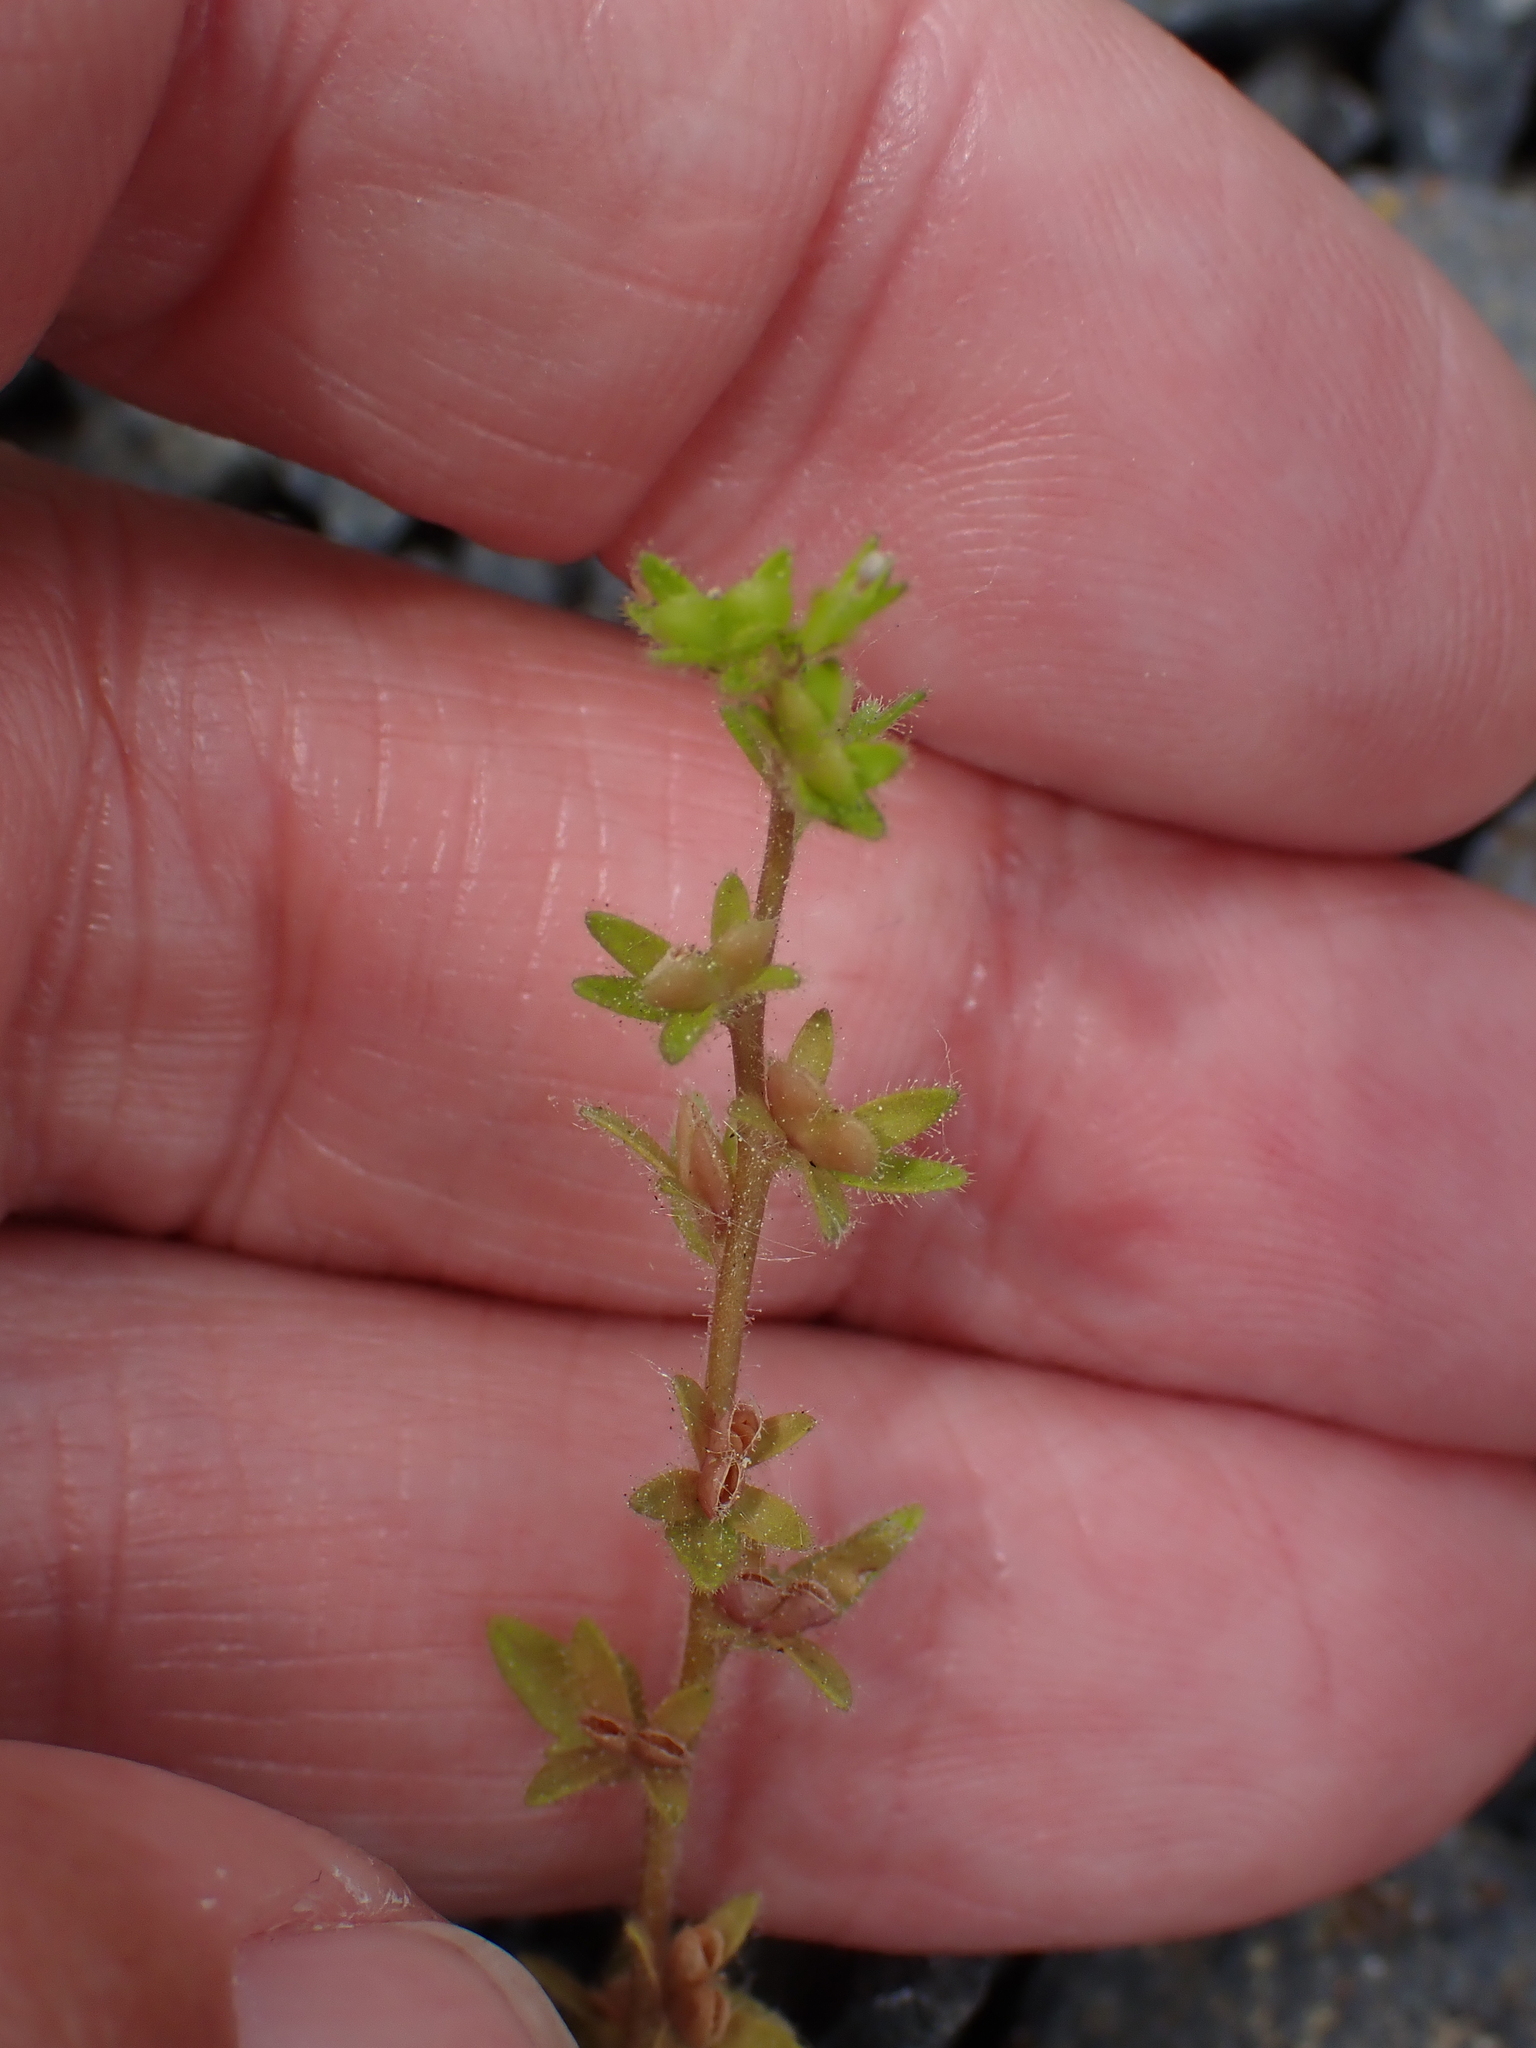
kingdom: Plantae
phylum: Tracheophyta
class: Magnoliopsida
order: Lamiales
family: Plantaginaceae
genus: Veronica
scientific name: Veronica arvensis
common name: Corn speedwell
